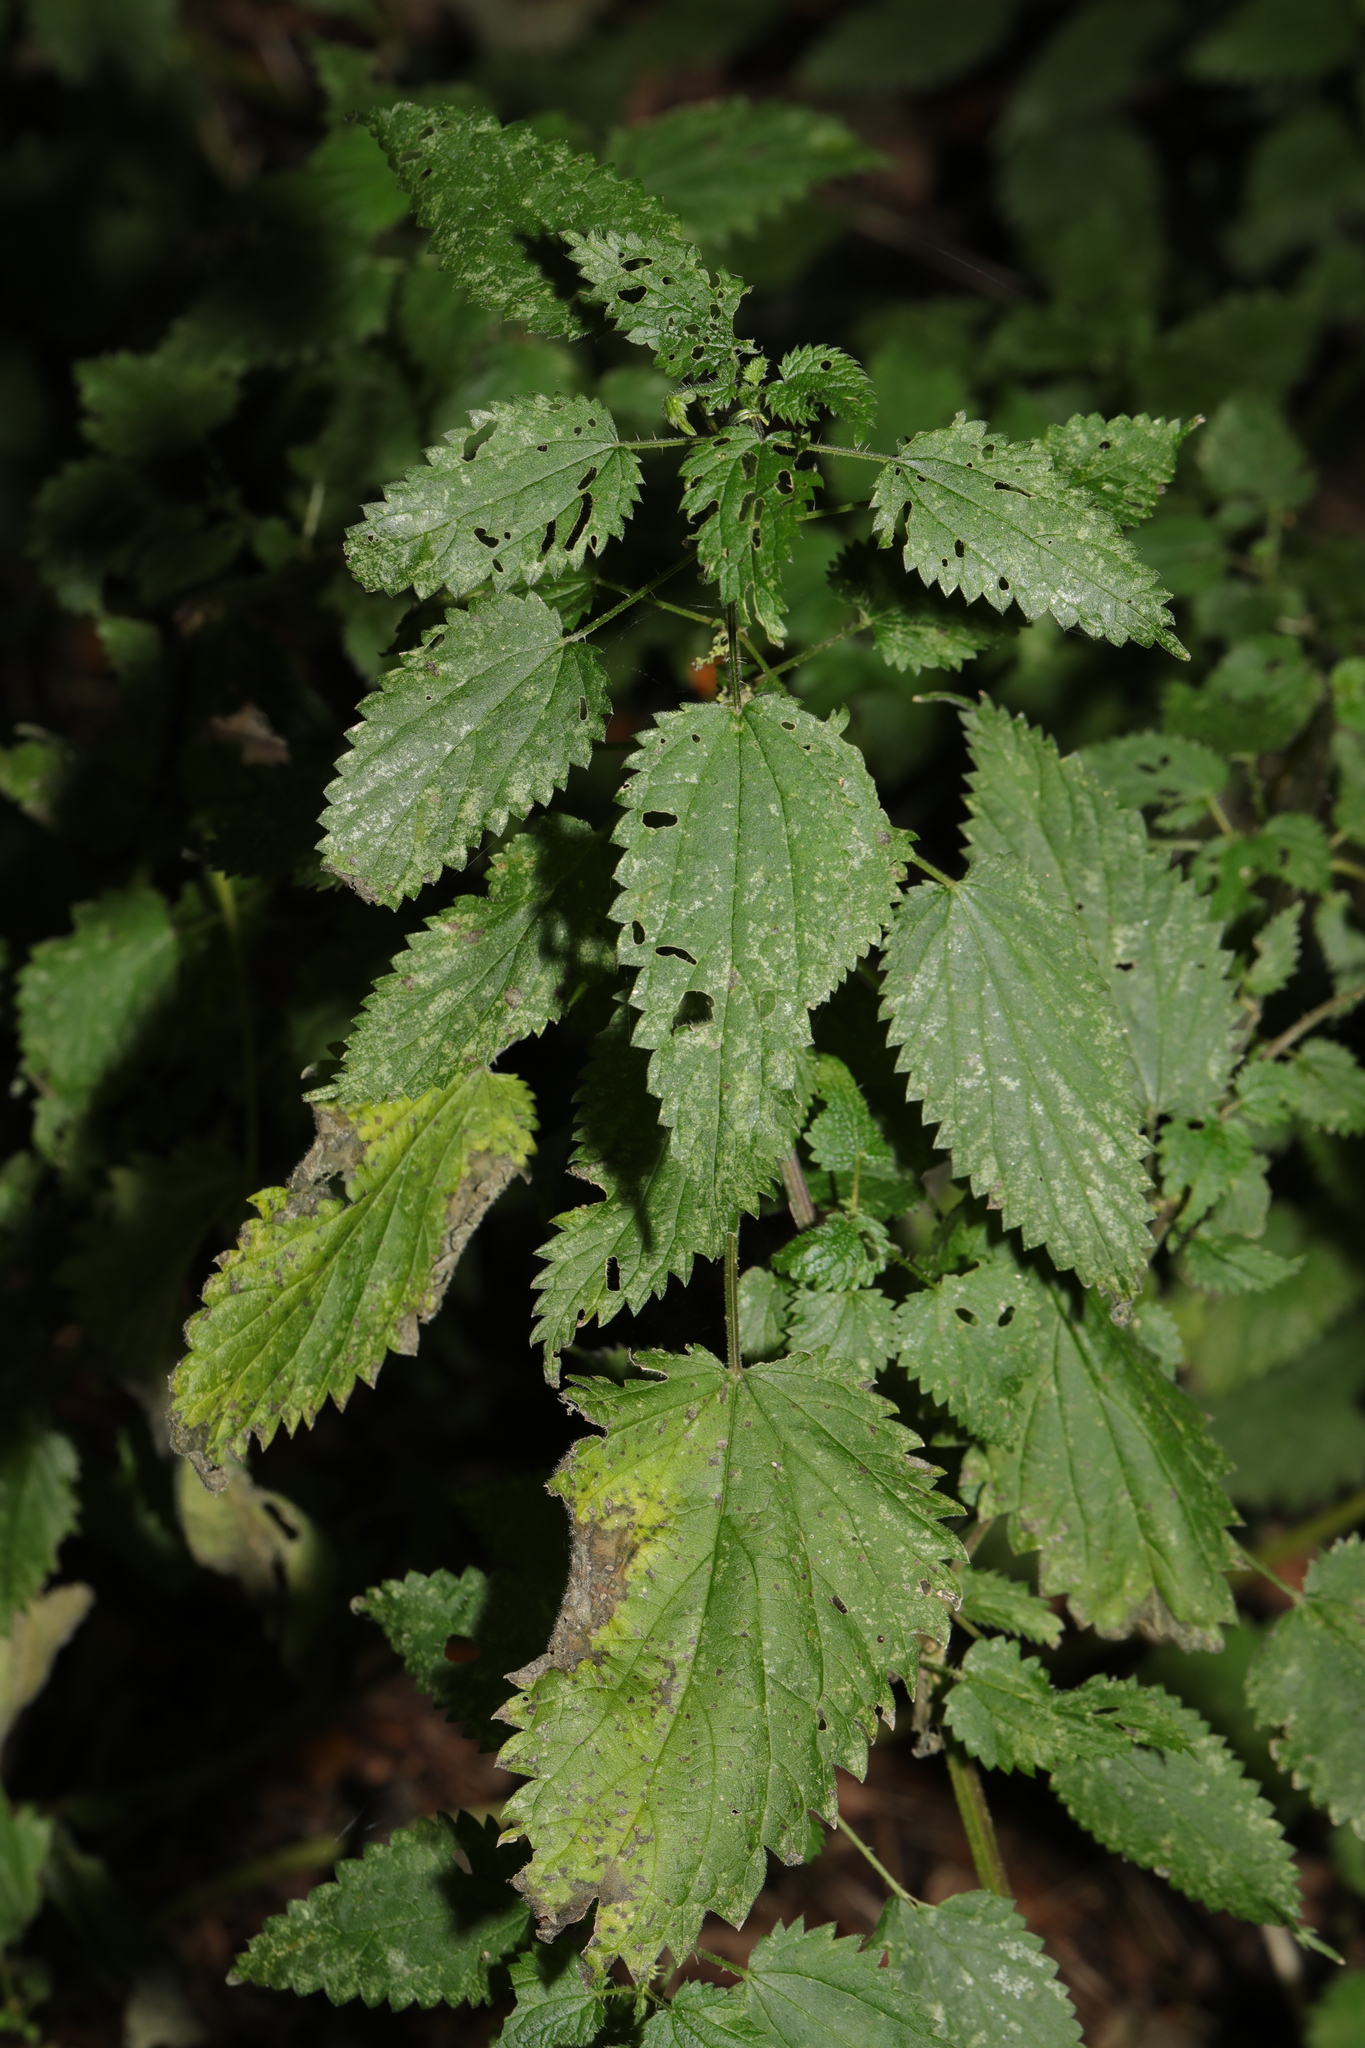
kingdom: Plantae
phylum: Tracheophyta
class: Magnoliopsida
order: Rosales
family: Urticaceae
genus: Urtica
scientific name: Urtica dioica
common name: Common nettle
